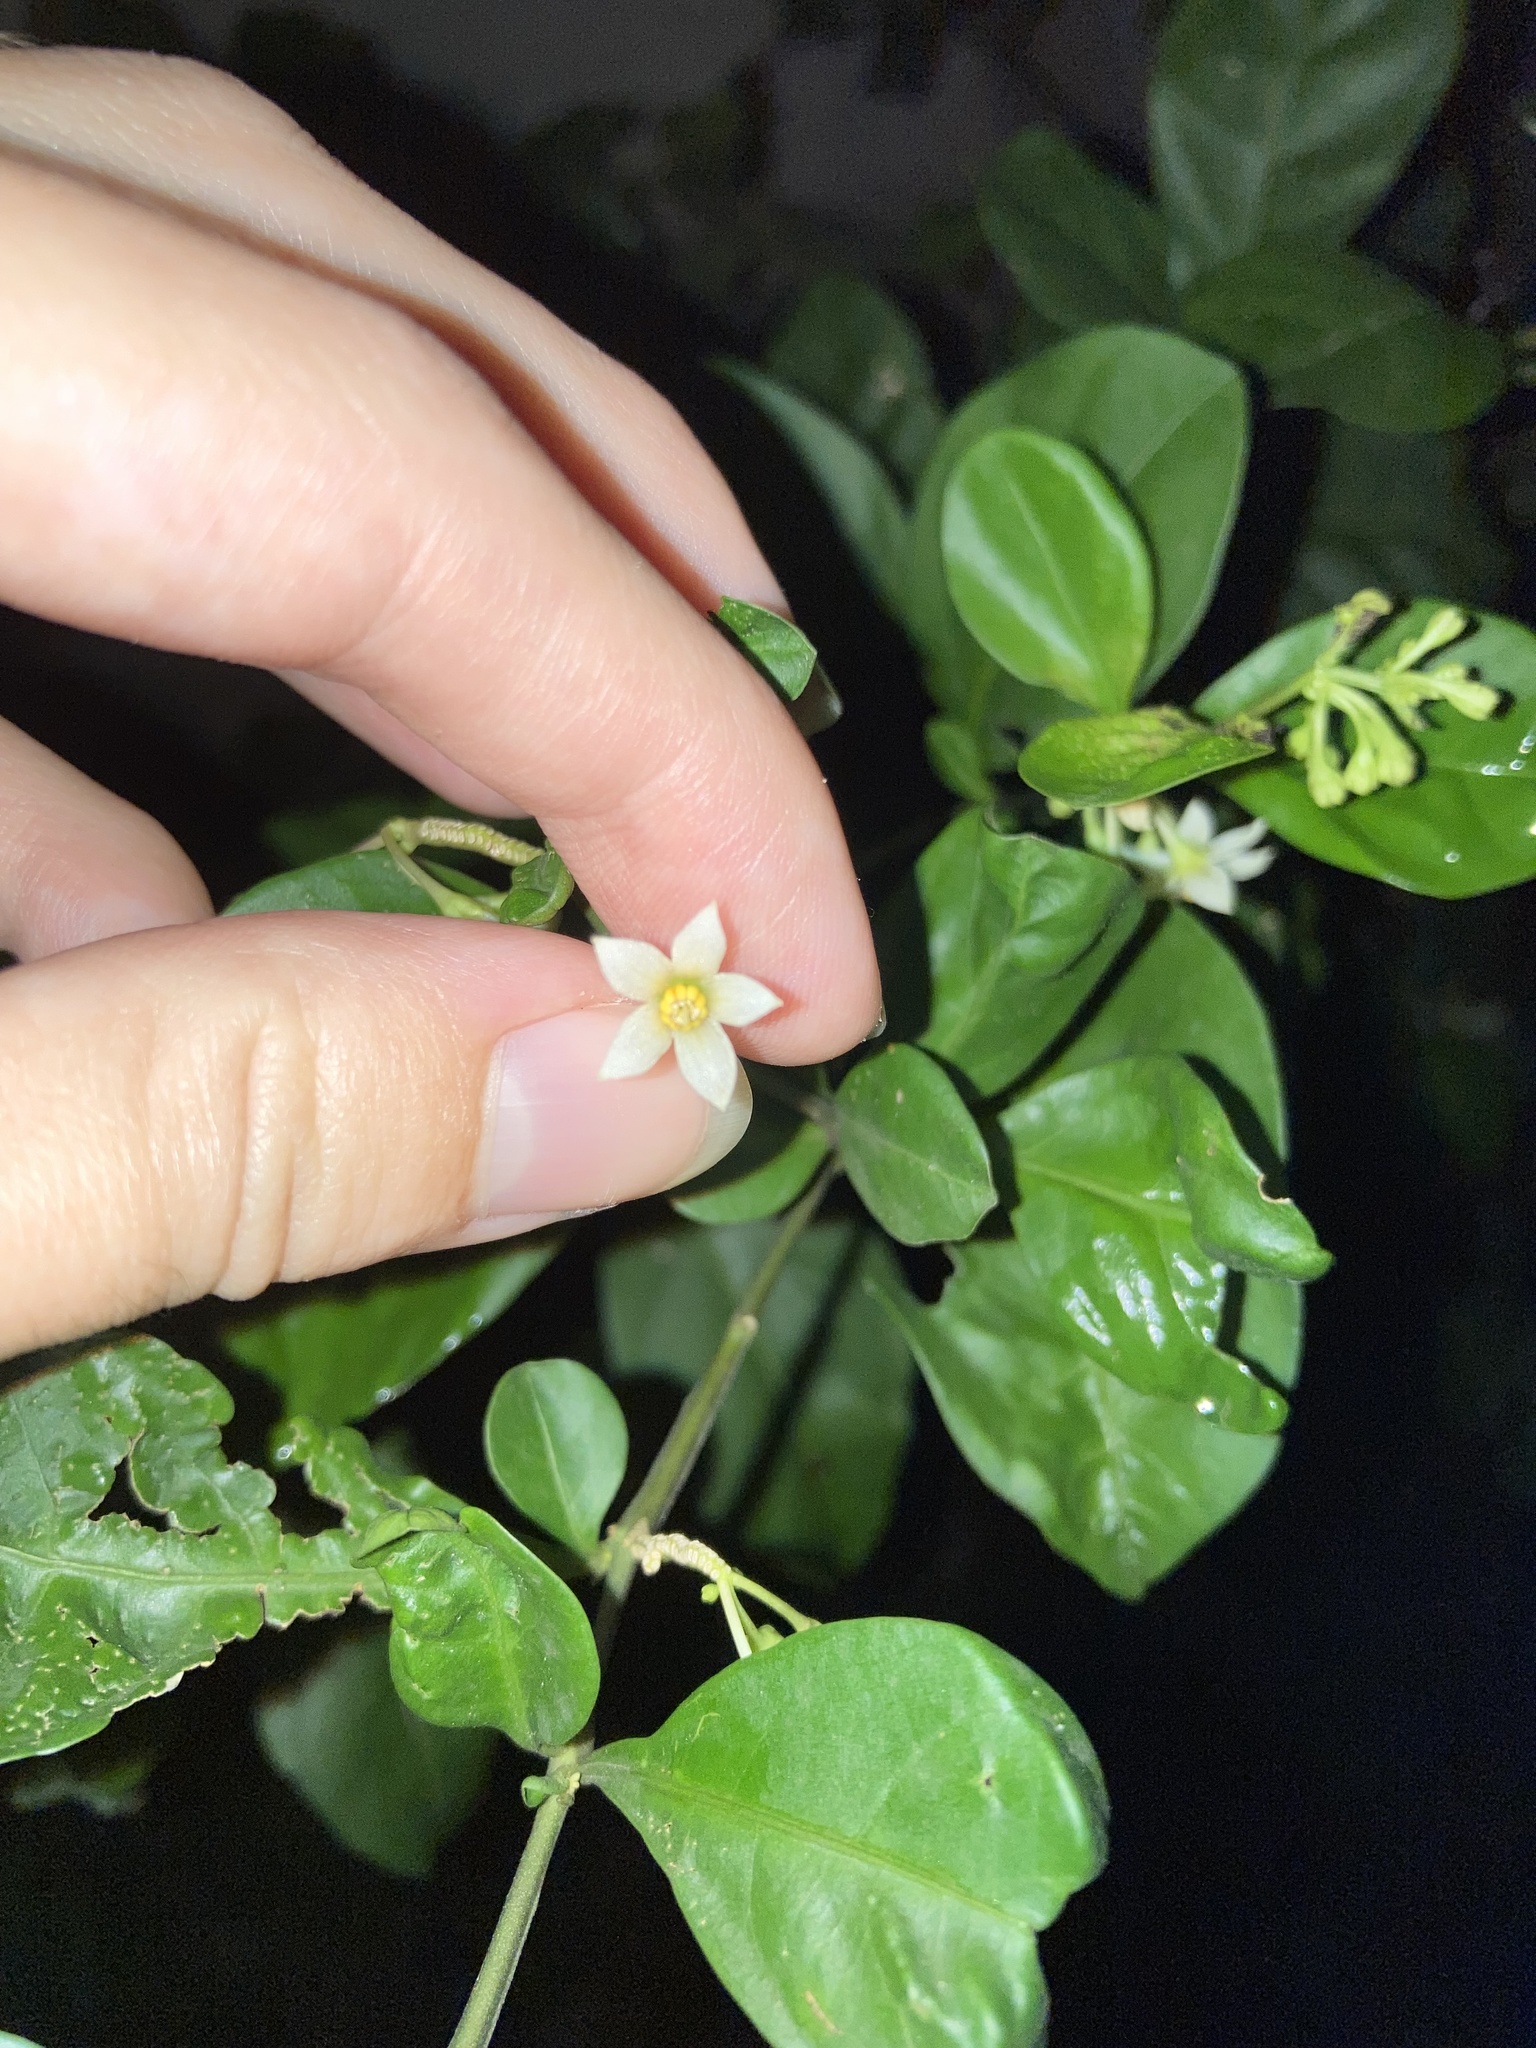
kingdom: Plantae
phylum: Tracheophyta
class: Magnoliopsida
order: Solanales
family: Solanaceae
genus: Solanum
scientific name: Solanum diphyllum
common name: Twoleaf nightshade
